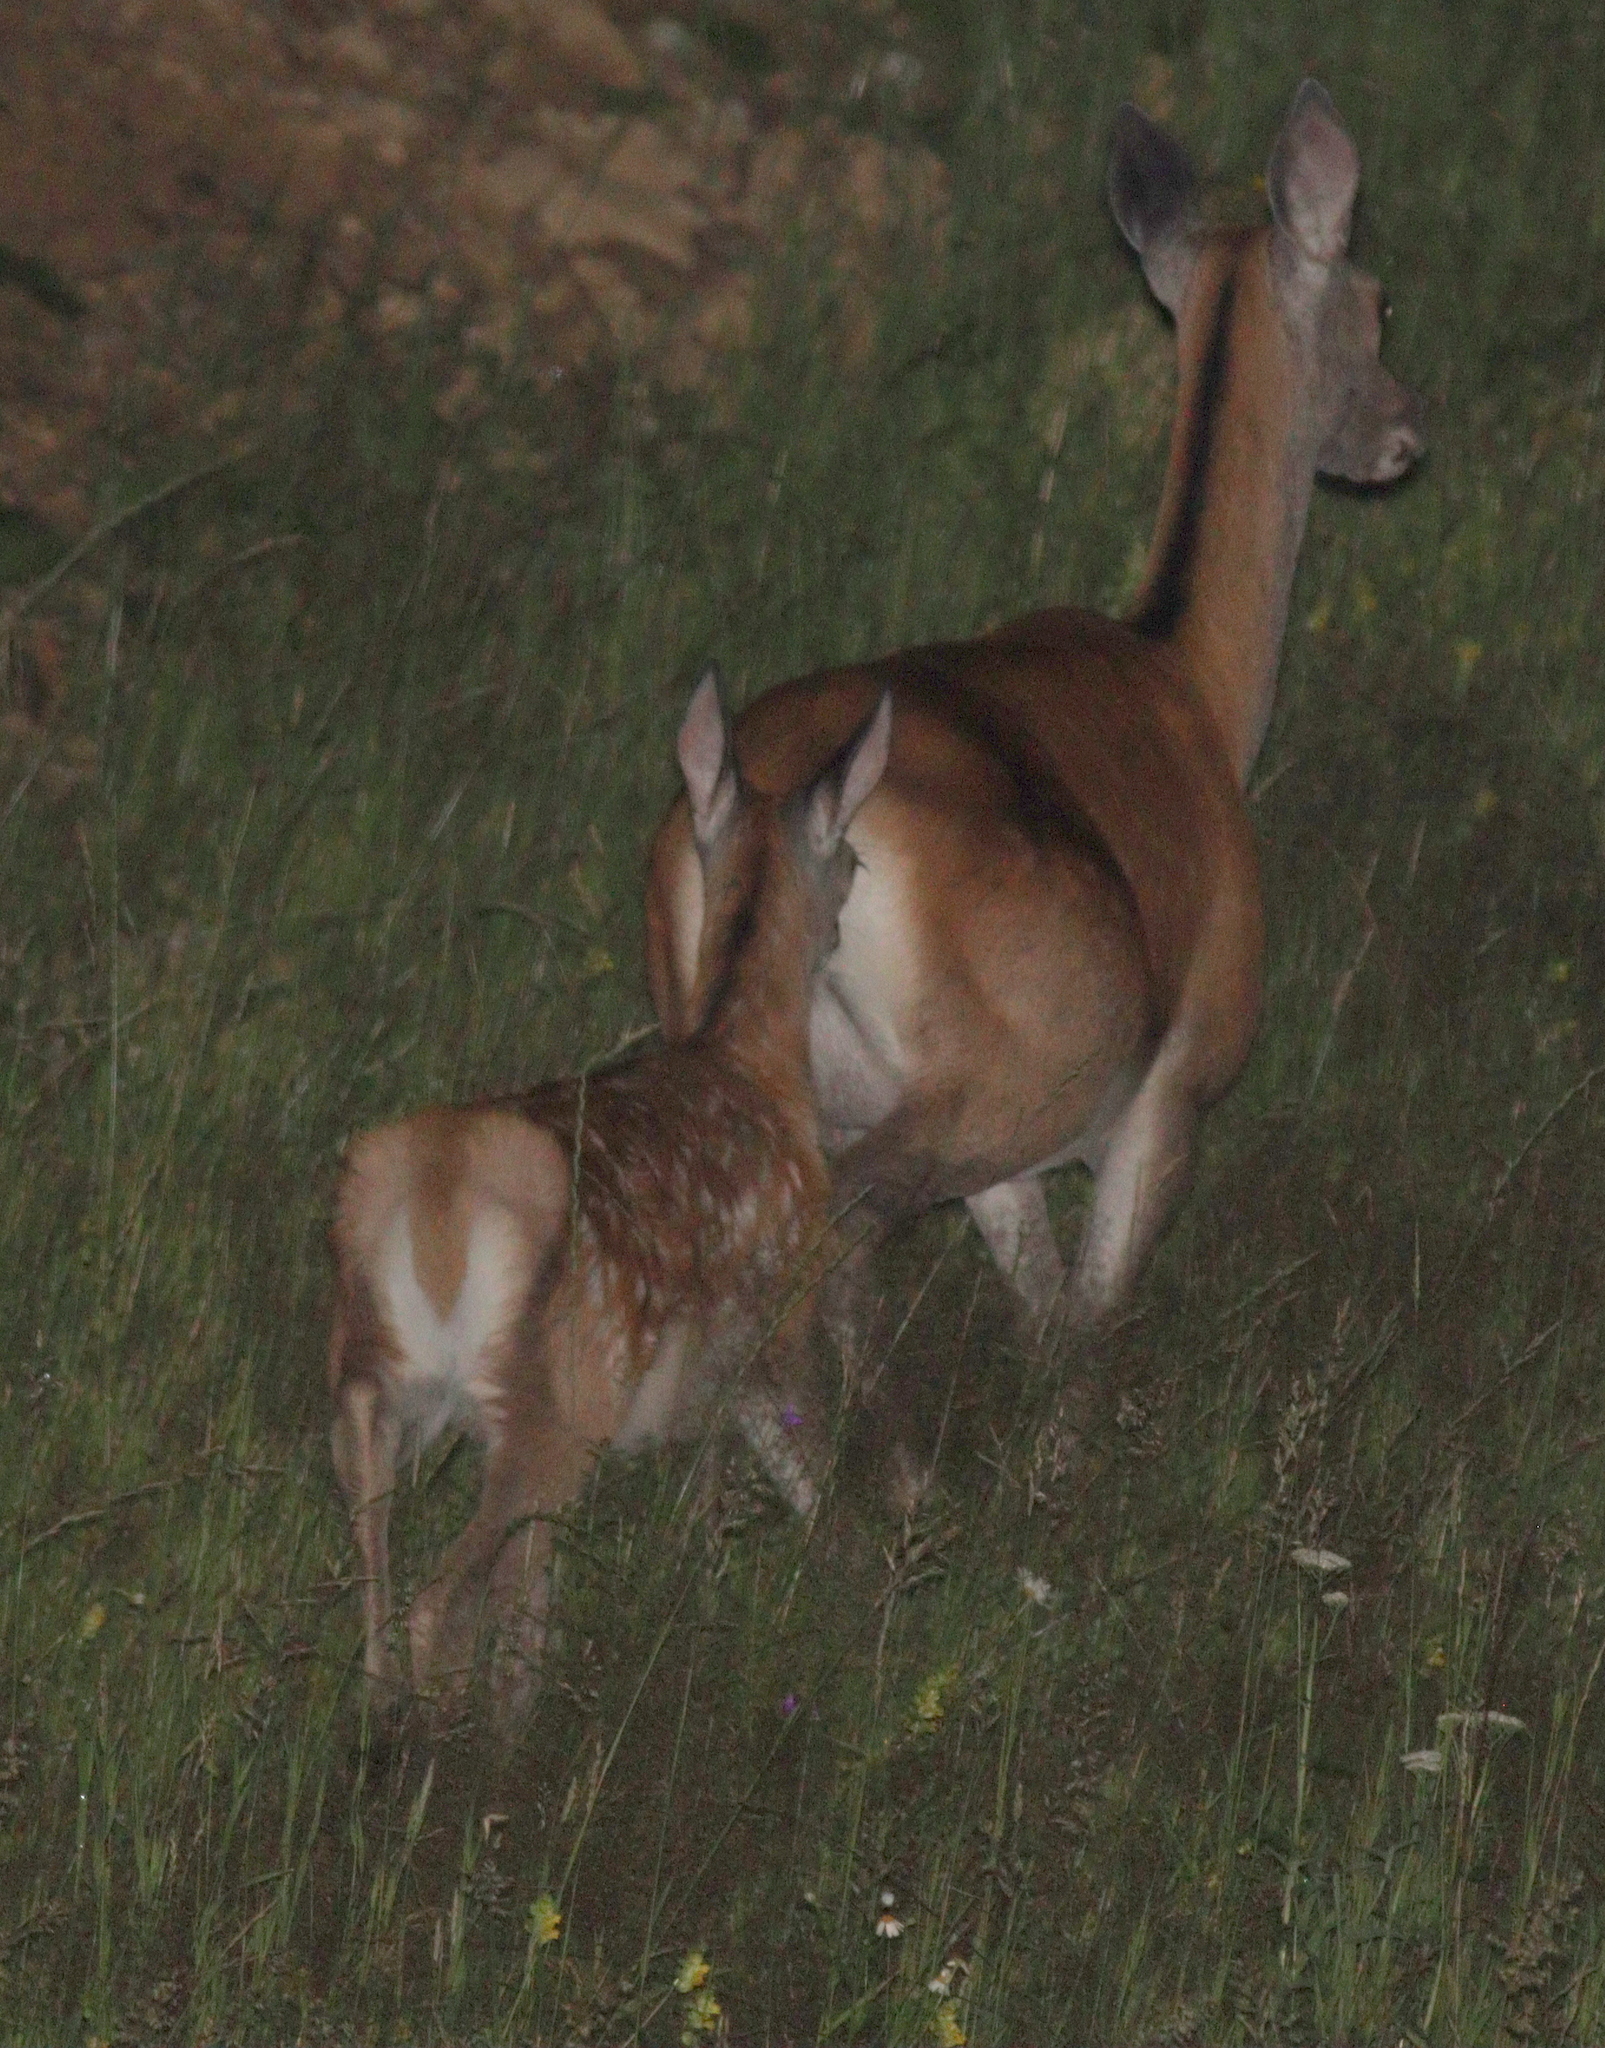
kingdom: Animalia
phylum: Chordata
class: Mammalia
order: Artiodactyla
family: Cervidae
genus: Cervus
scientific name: Cervus elaphus
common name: Red deer
